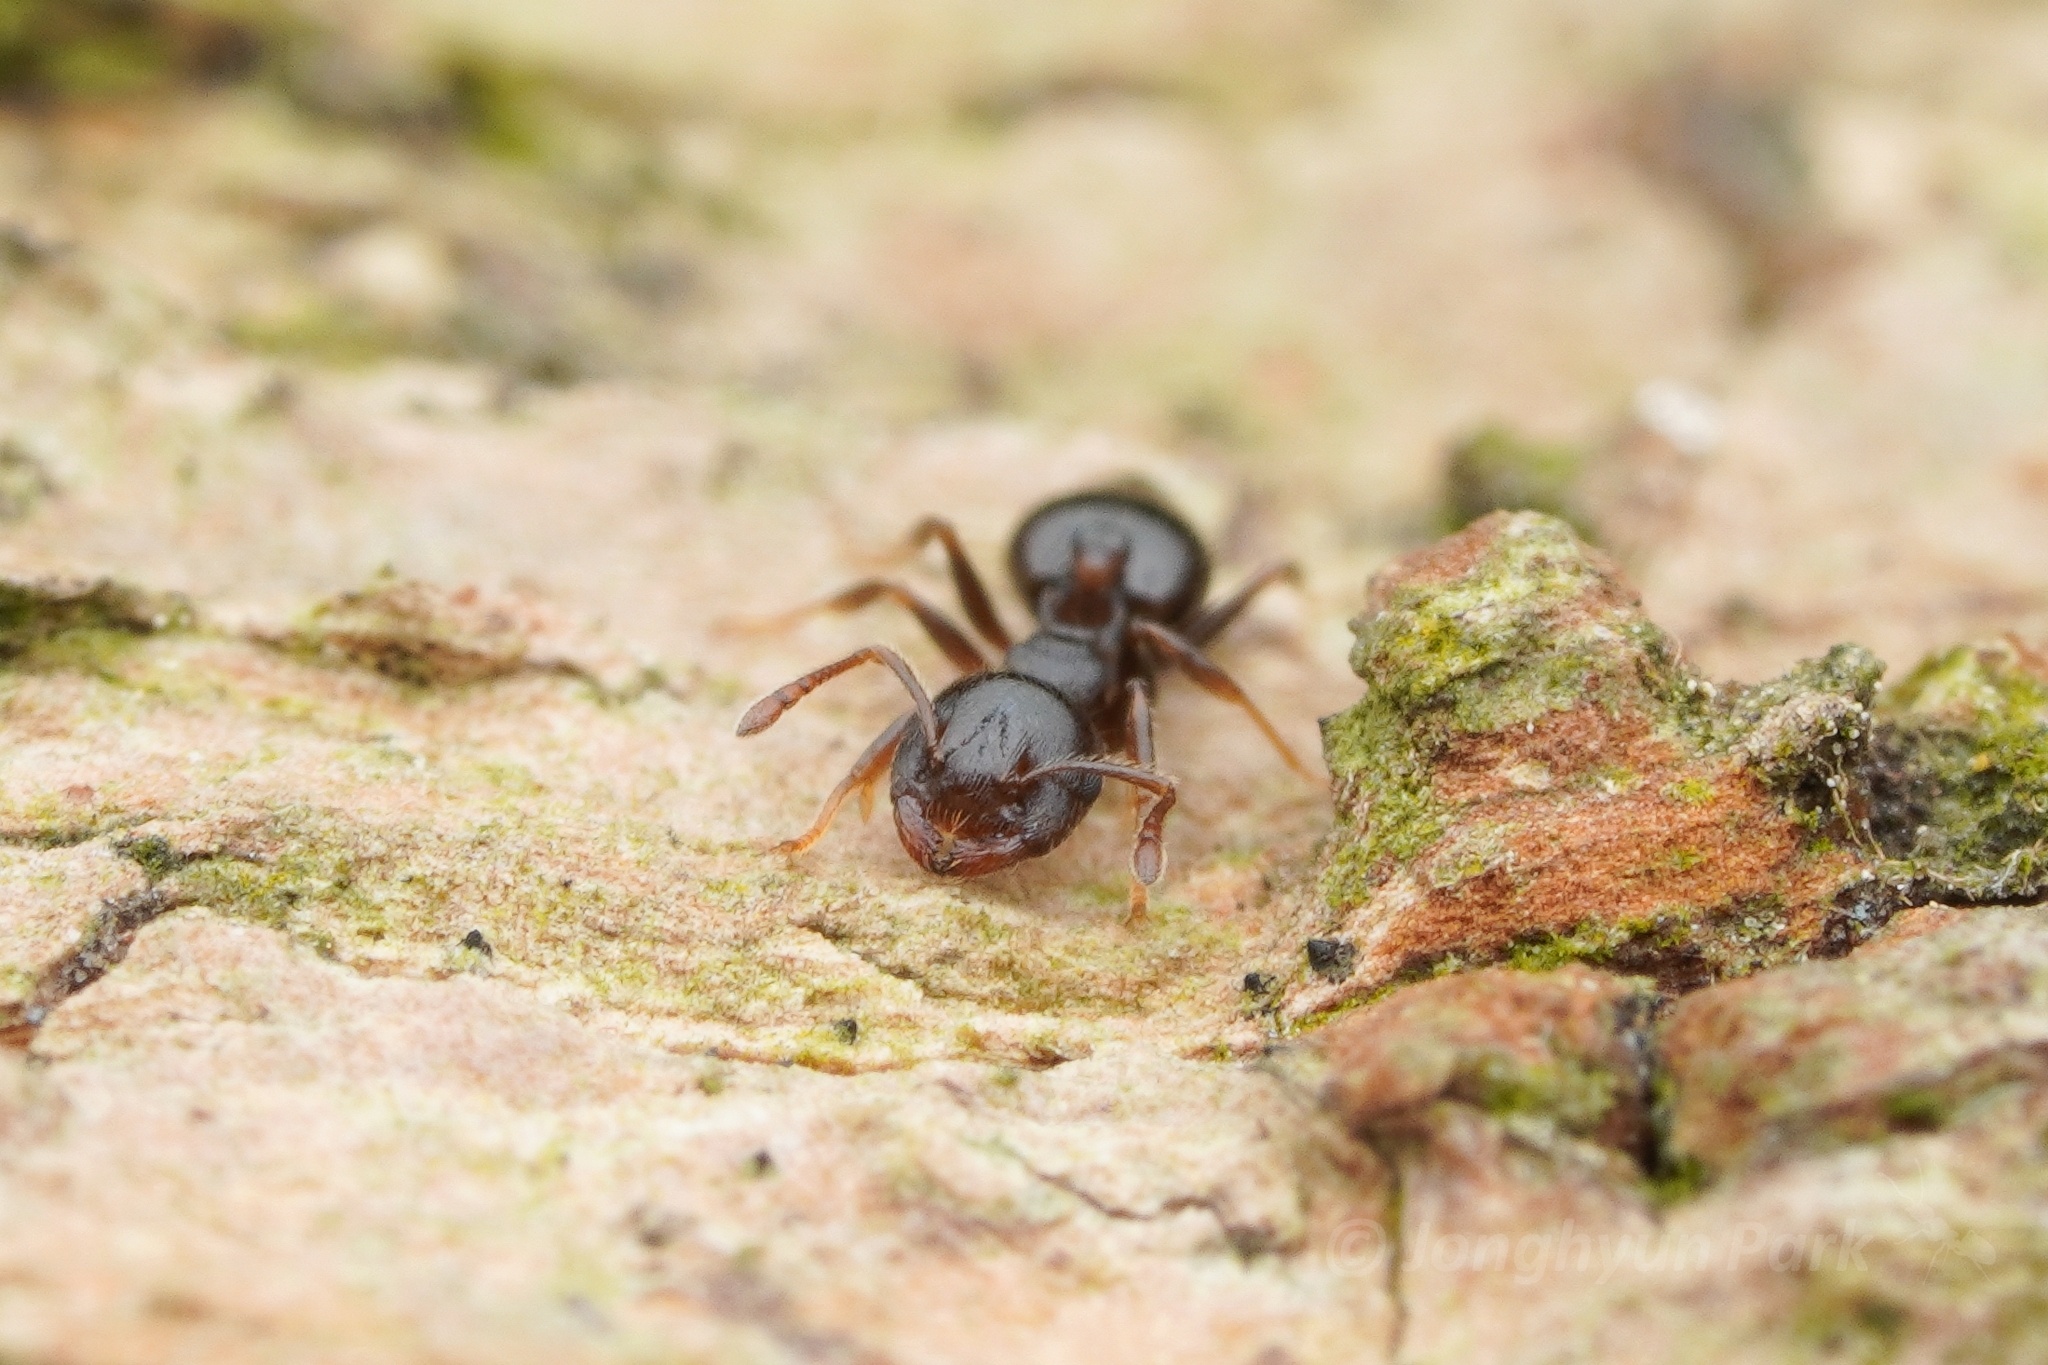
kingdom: Animalia
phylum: Arthropoda
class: Insecta
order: Hymenoptera
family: Formicidae
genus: Crematogaster
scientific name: Crematogaster teranishii
